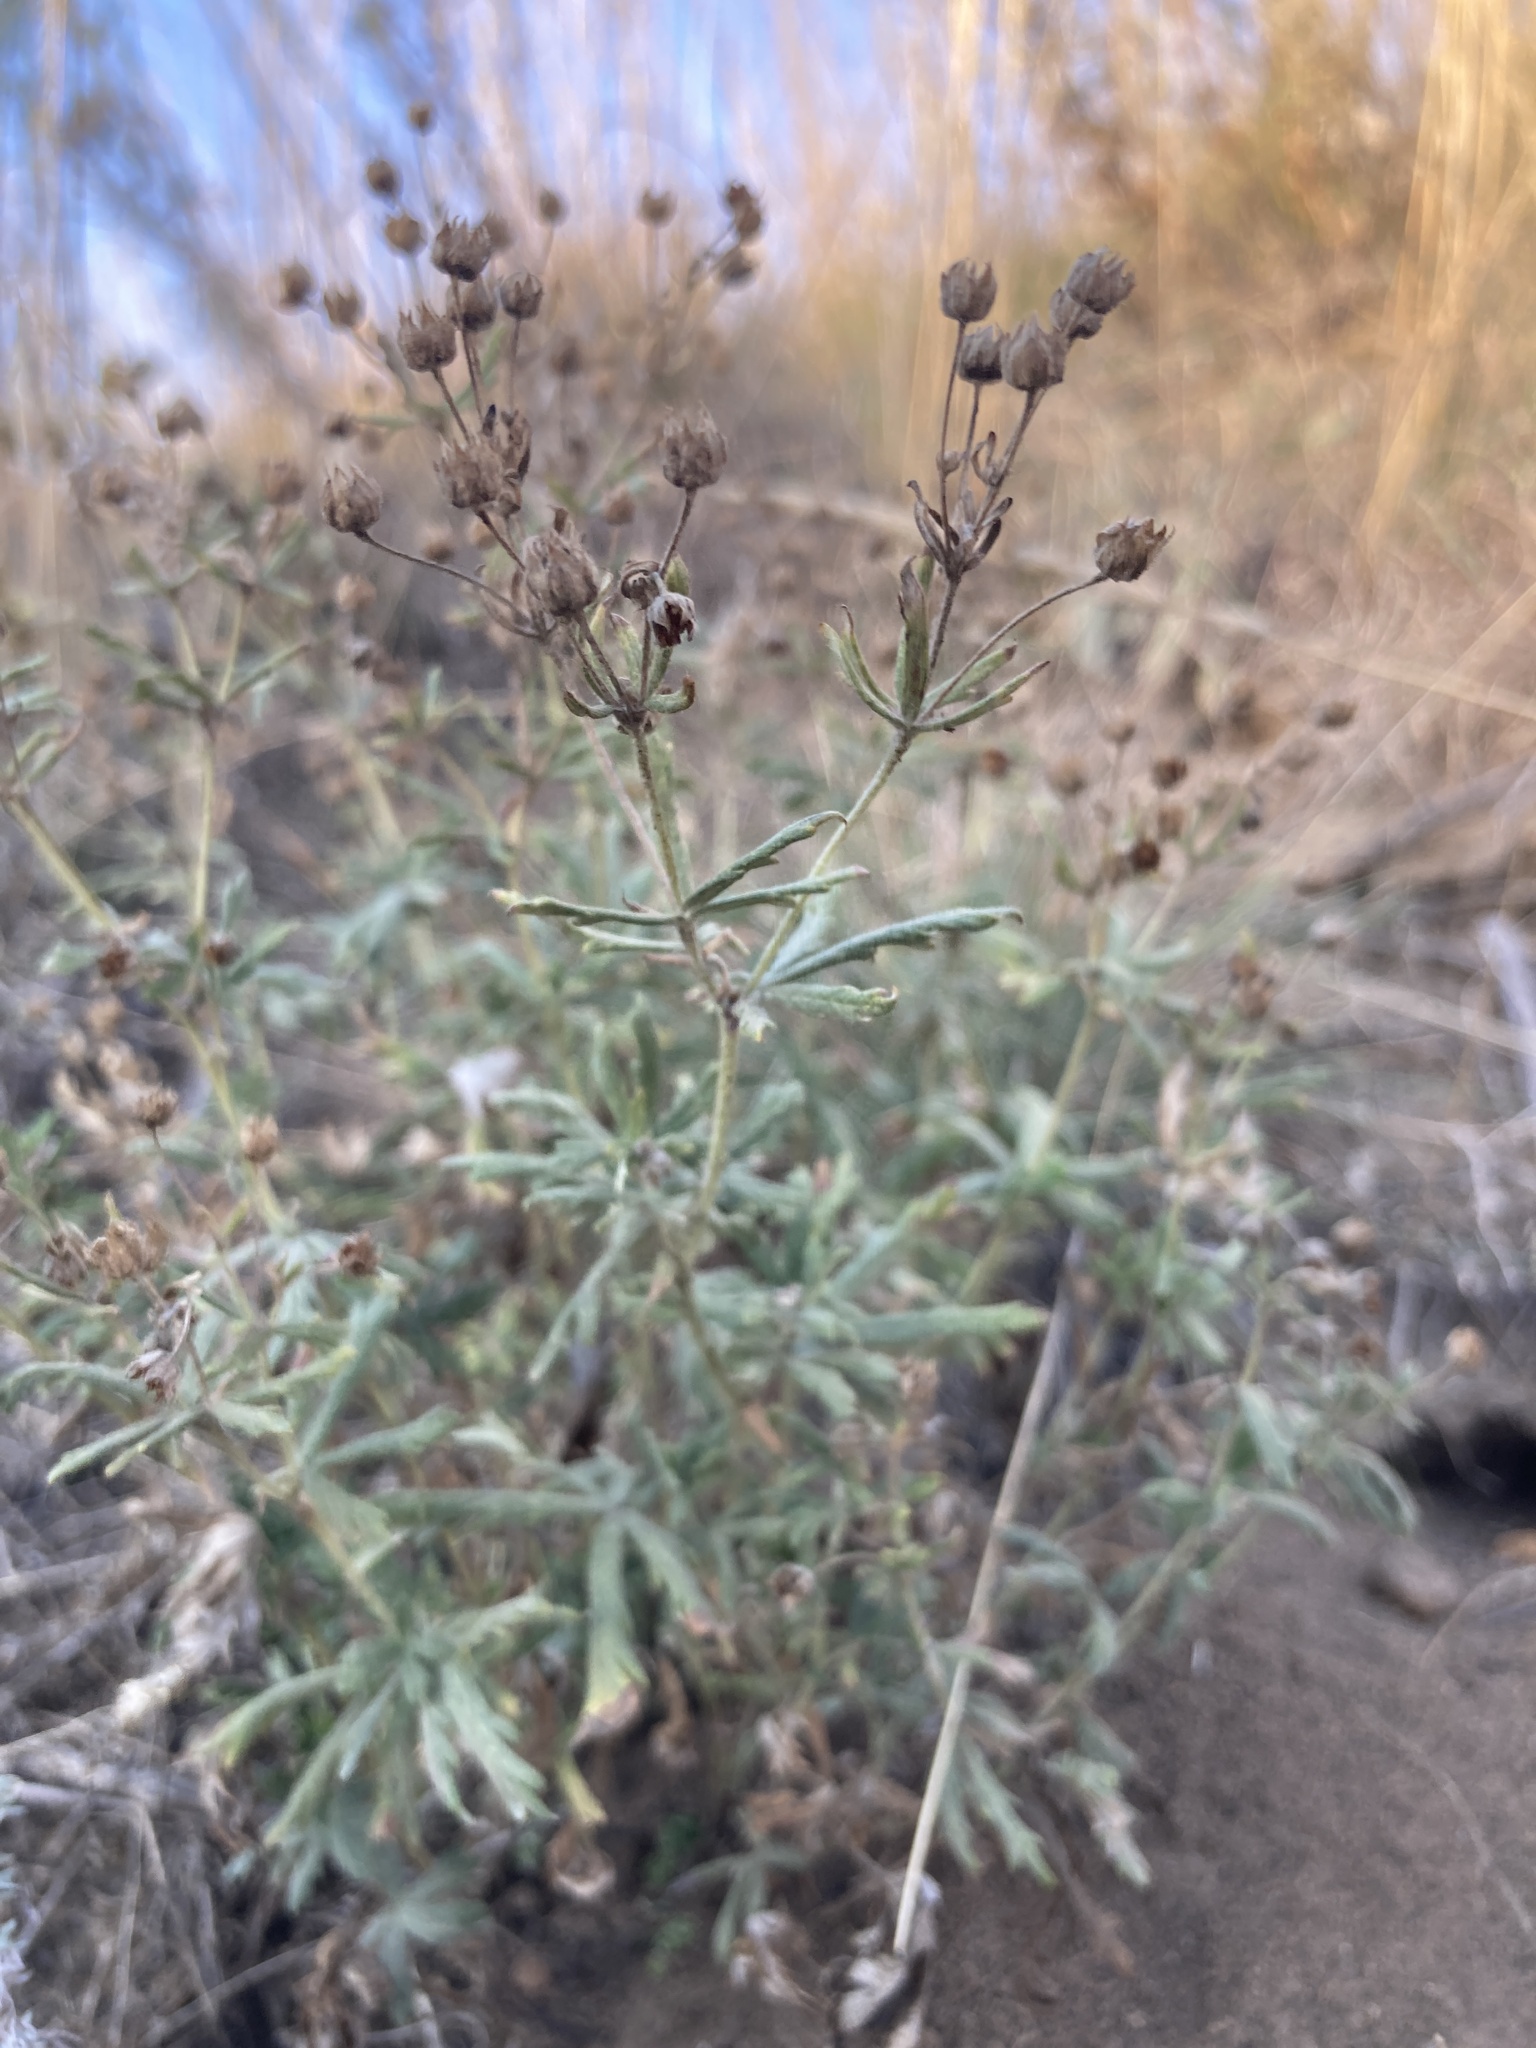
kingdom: Plantae
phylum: Tracheophyta
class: Magnoliopsida
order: Rosales
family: Rosaceae
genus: Potentilla
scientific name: Potentilla argentea
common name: Hoary cinquefoil
